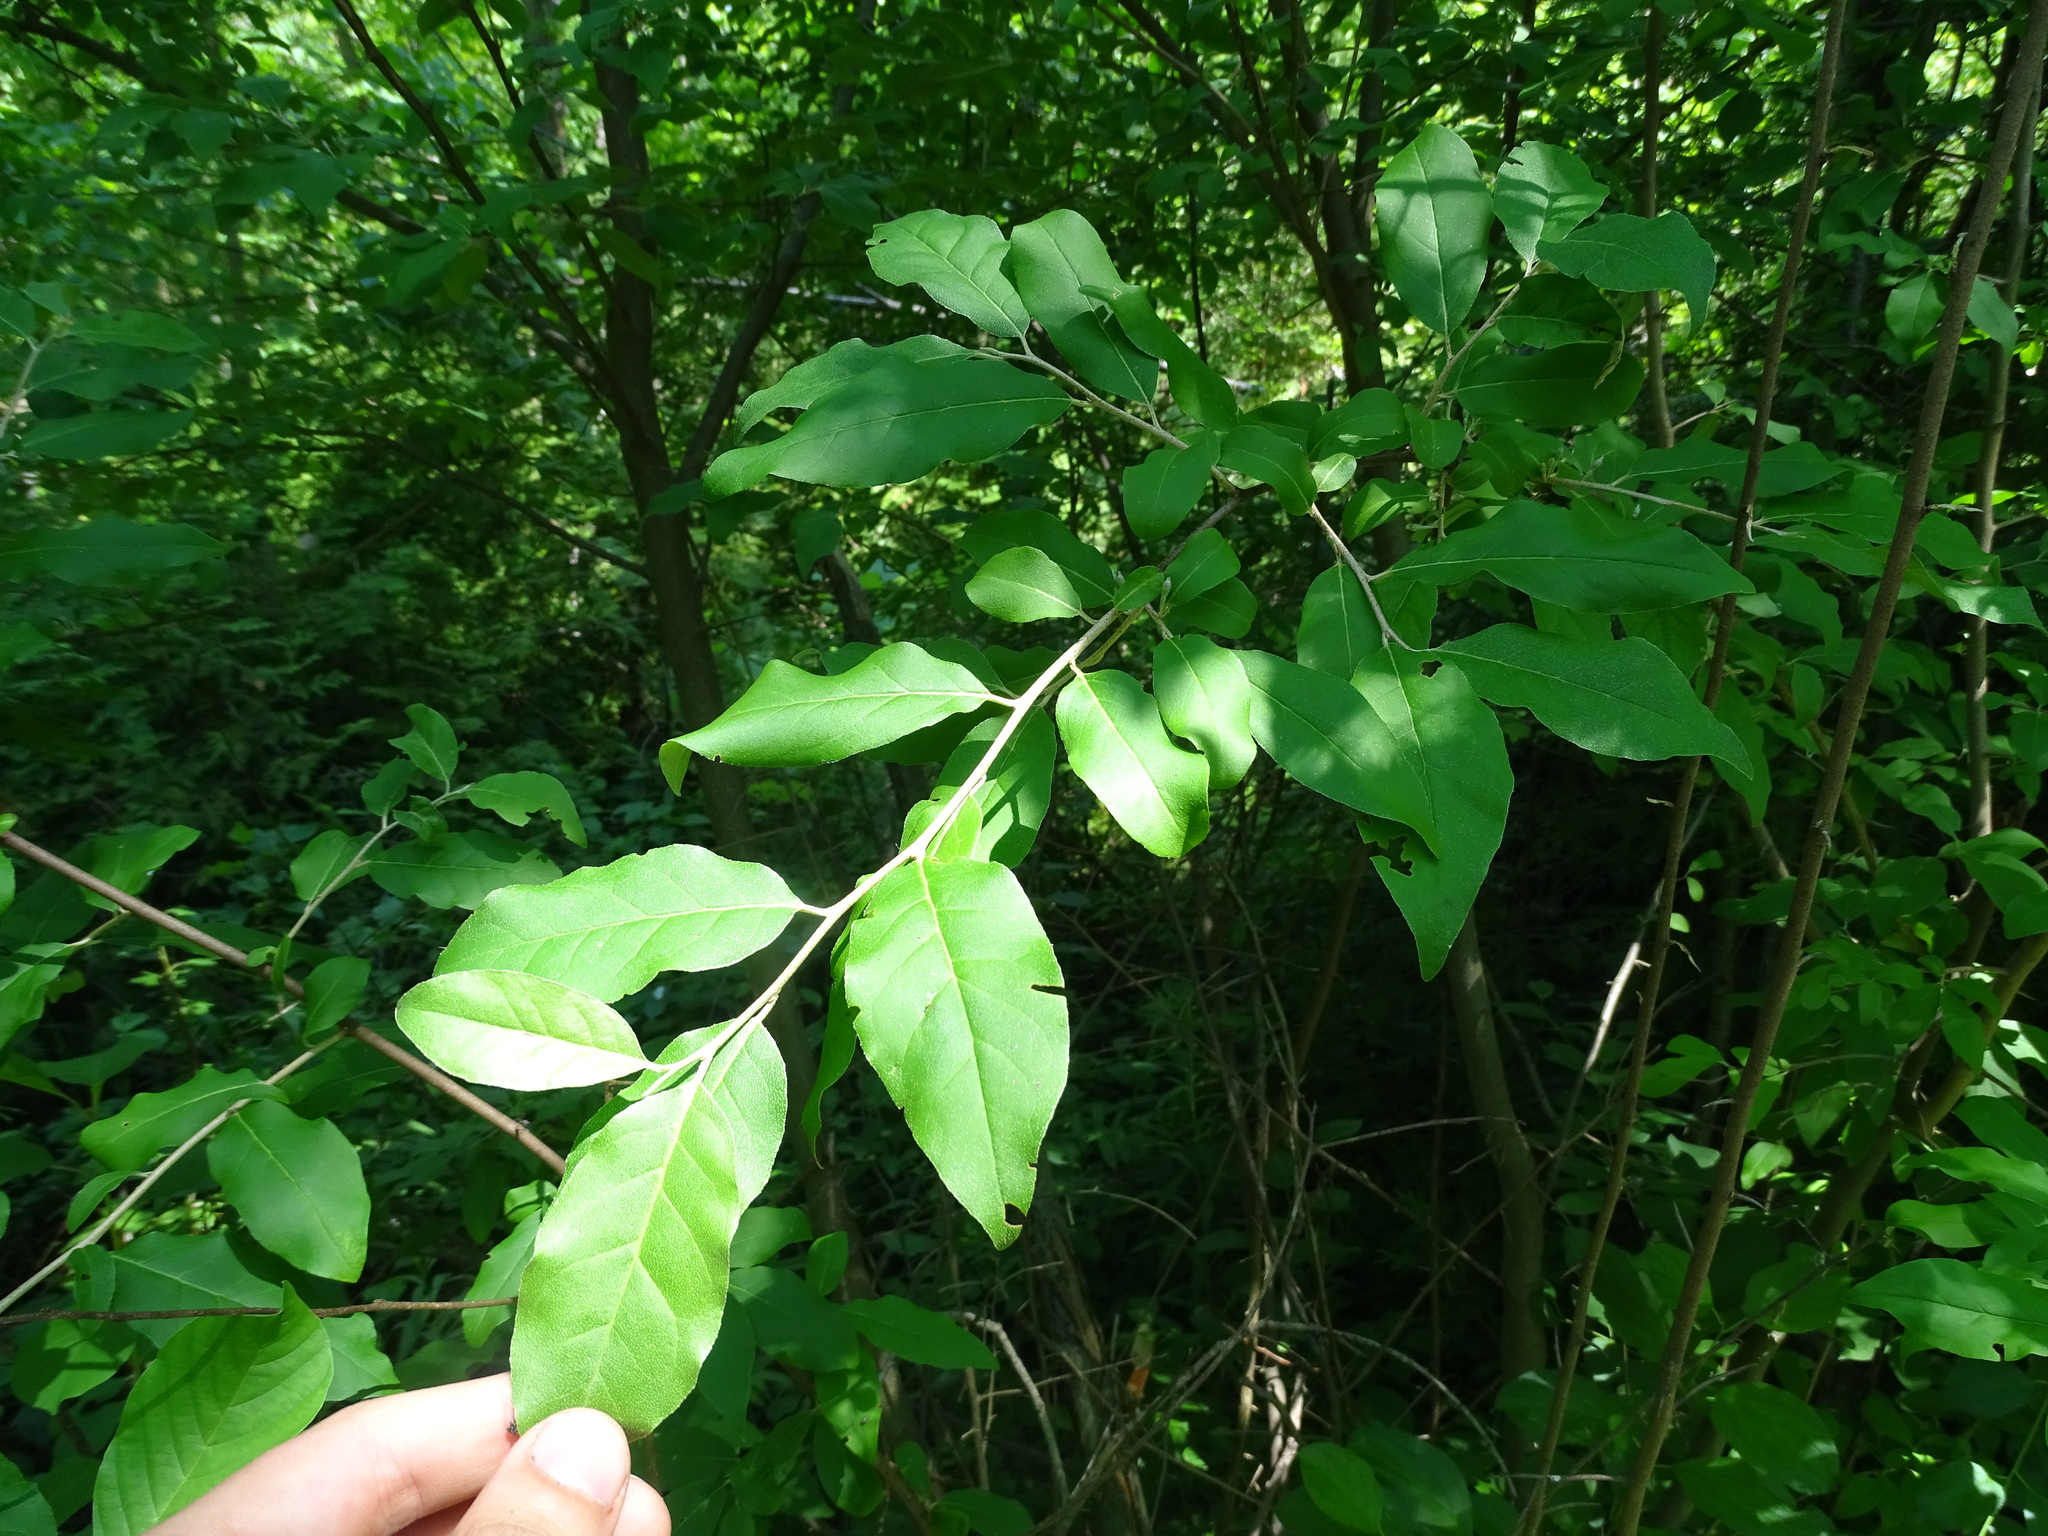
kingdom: Plantae
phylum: Tracheophyta
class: Magnoliopsida
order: Rosales
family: Elaeagnaceae
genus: Elaeagnus
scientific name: Elaeagnus umbellata
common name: Autumn olive
